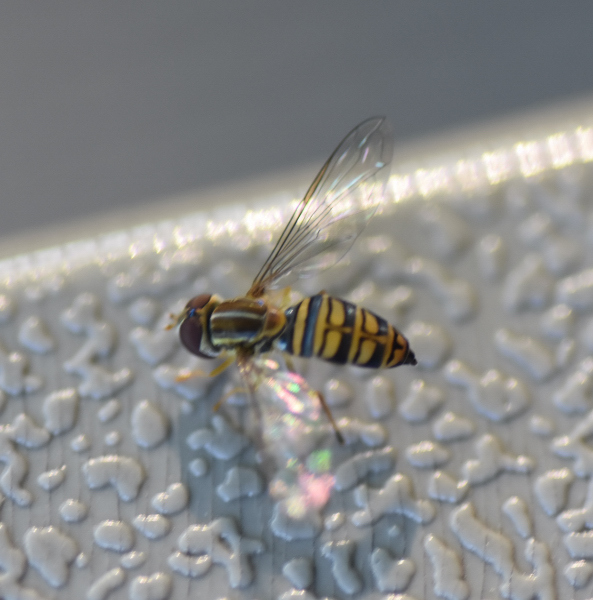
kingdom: Animalia
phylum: Arthropoda
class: Insecta
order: Diptera
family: Syrphidae
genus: Toxomerus
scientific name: Toxomerus politus
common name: Maize calligrapher
